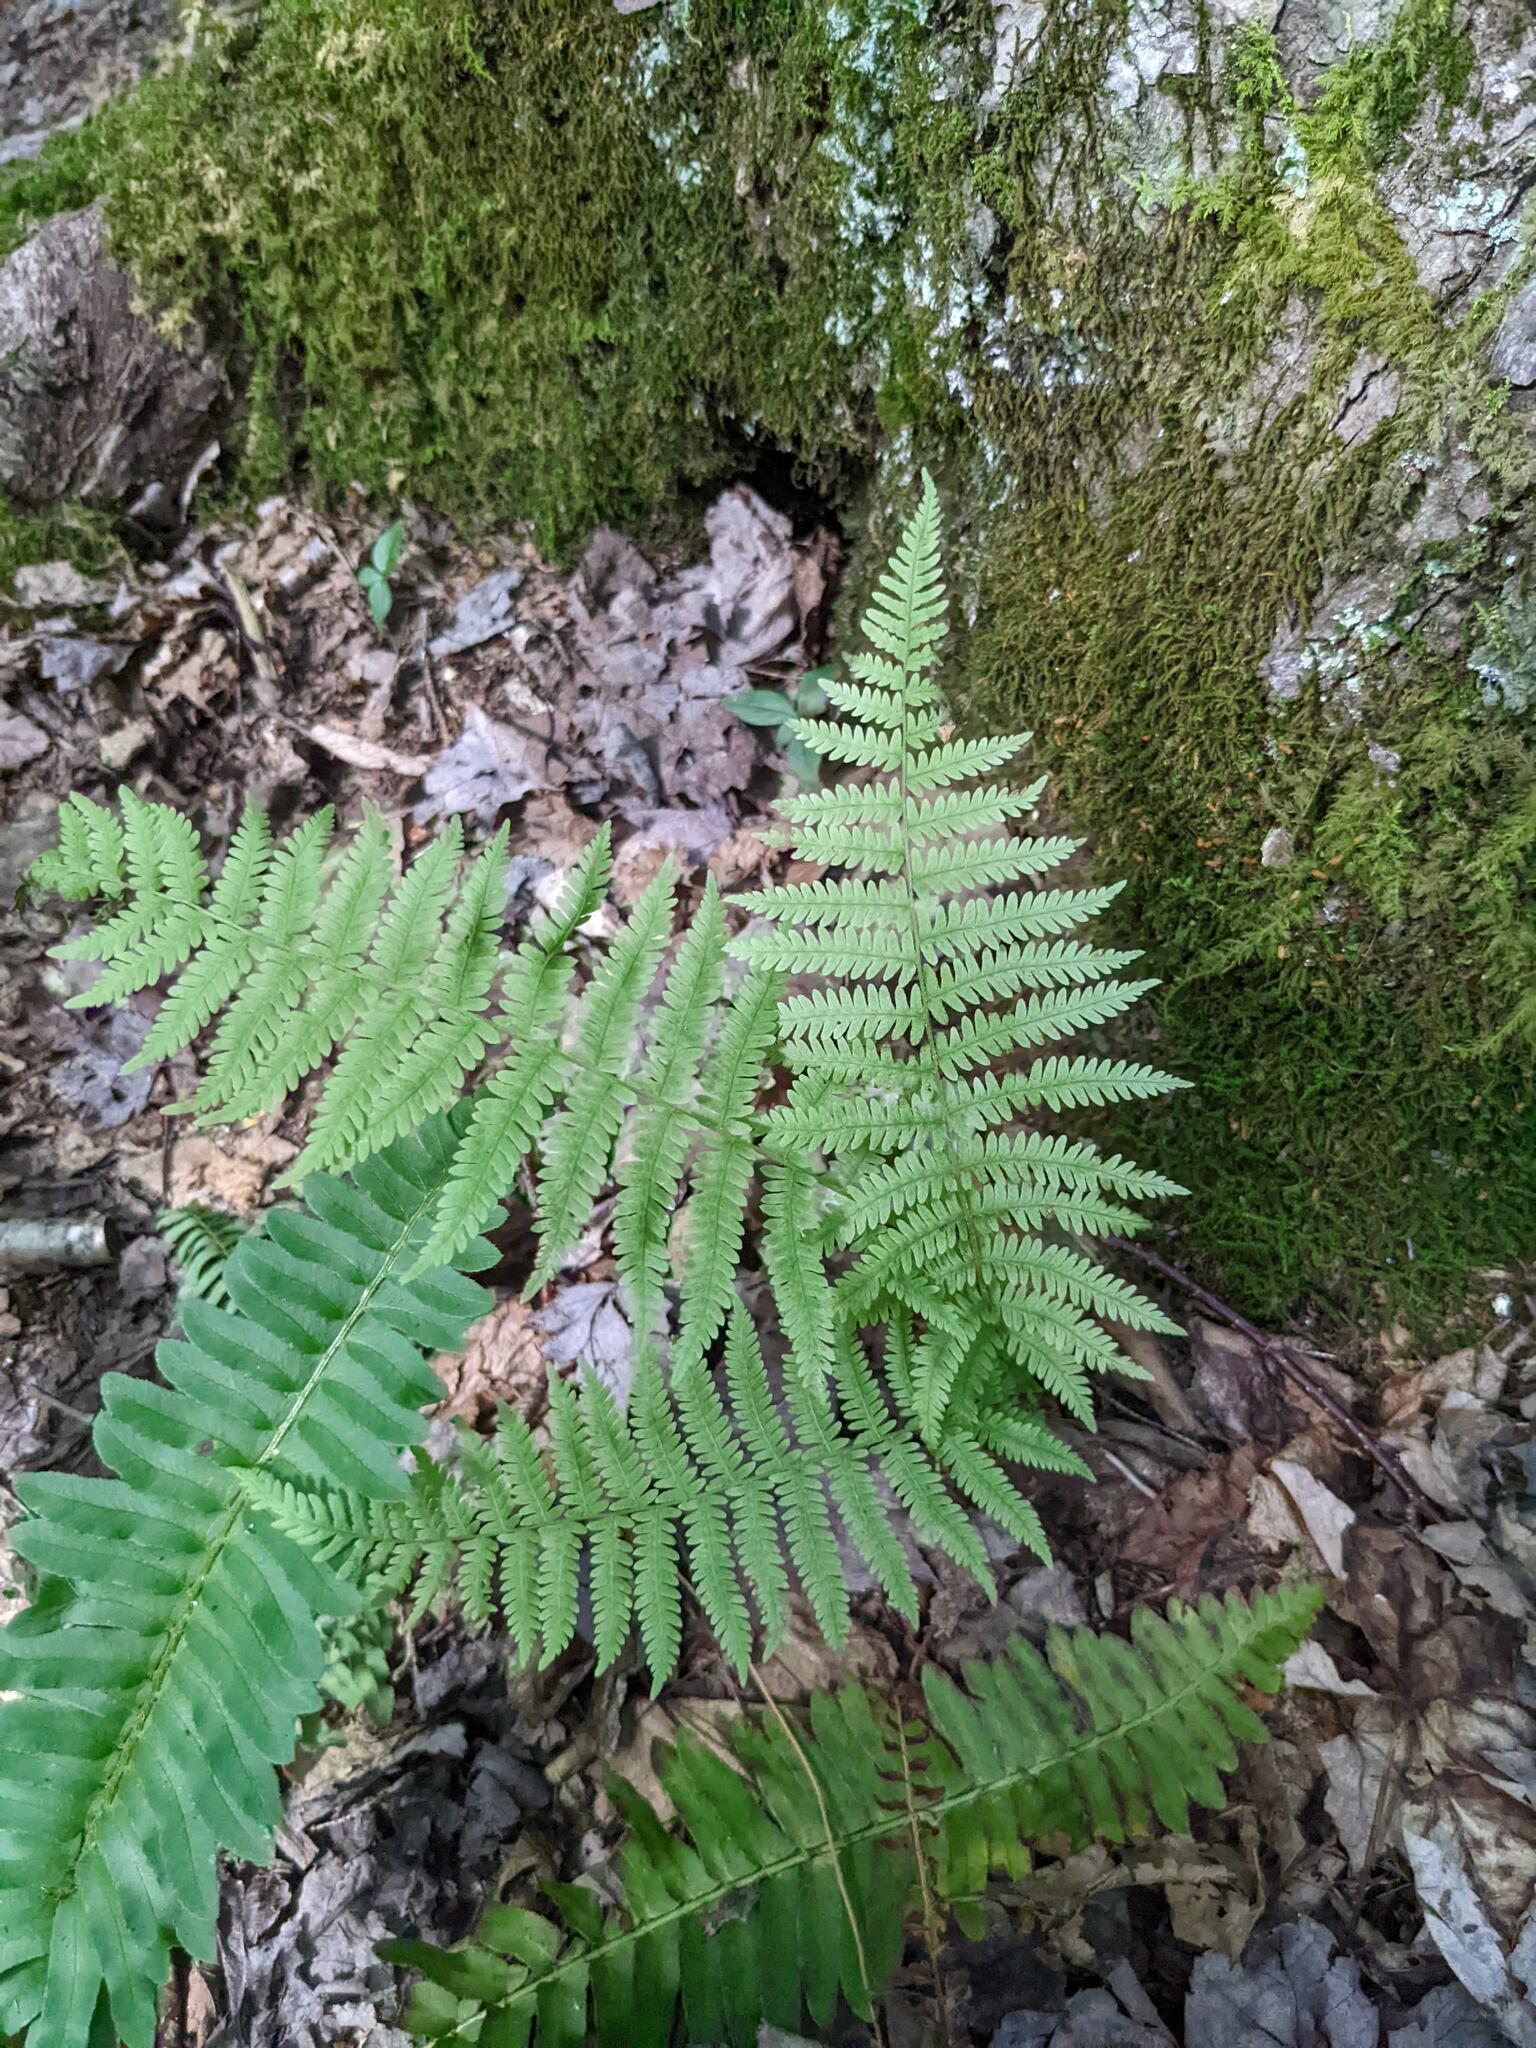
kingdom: Plantae
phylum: Tracheophyta
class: Polypodiopsida
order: Polypodiales
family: Thelypteridaceae
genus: Amauropelta
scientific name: Amauropelta noveboracensis
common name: New york fern
